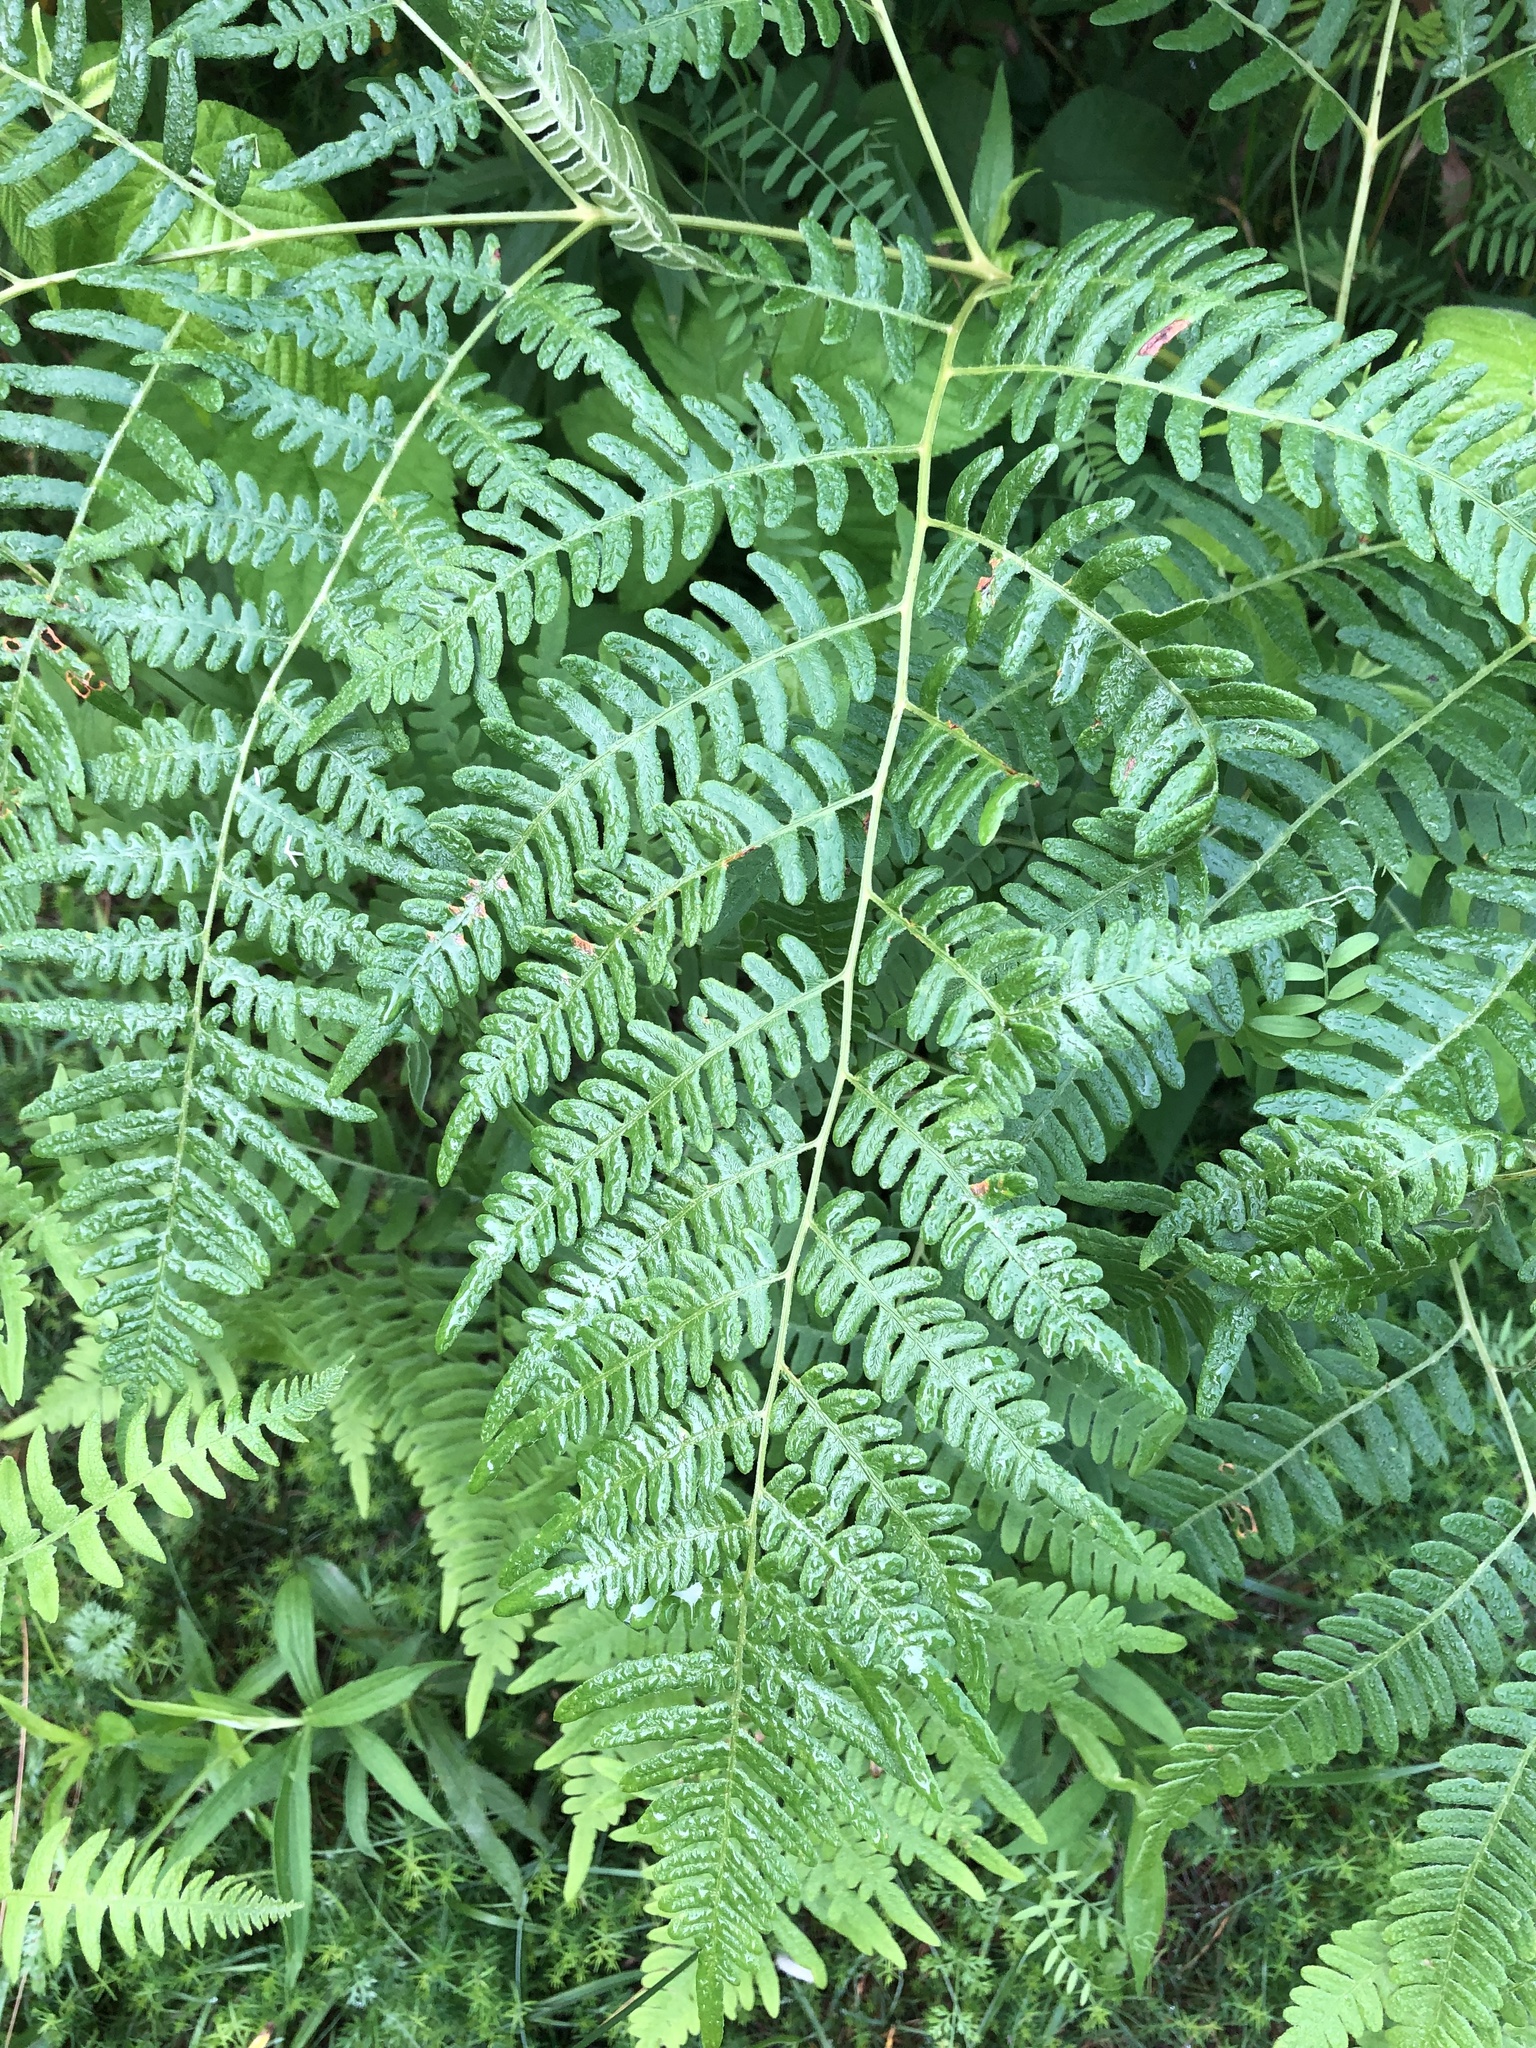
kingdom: Plantae
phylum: Tracheophyta
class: Polypodiopsida
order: Polypodiales
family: Dennstaedtiaceae
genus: Pteridium
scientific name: Pteridium aquilinum
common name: Bracken
